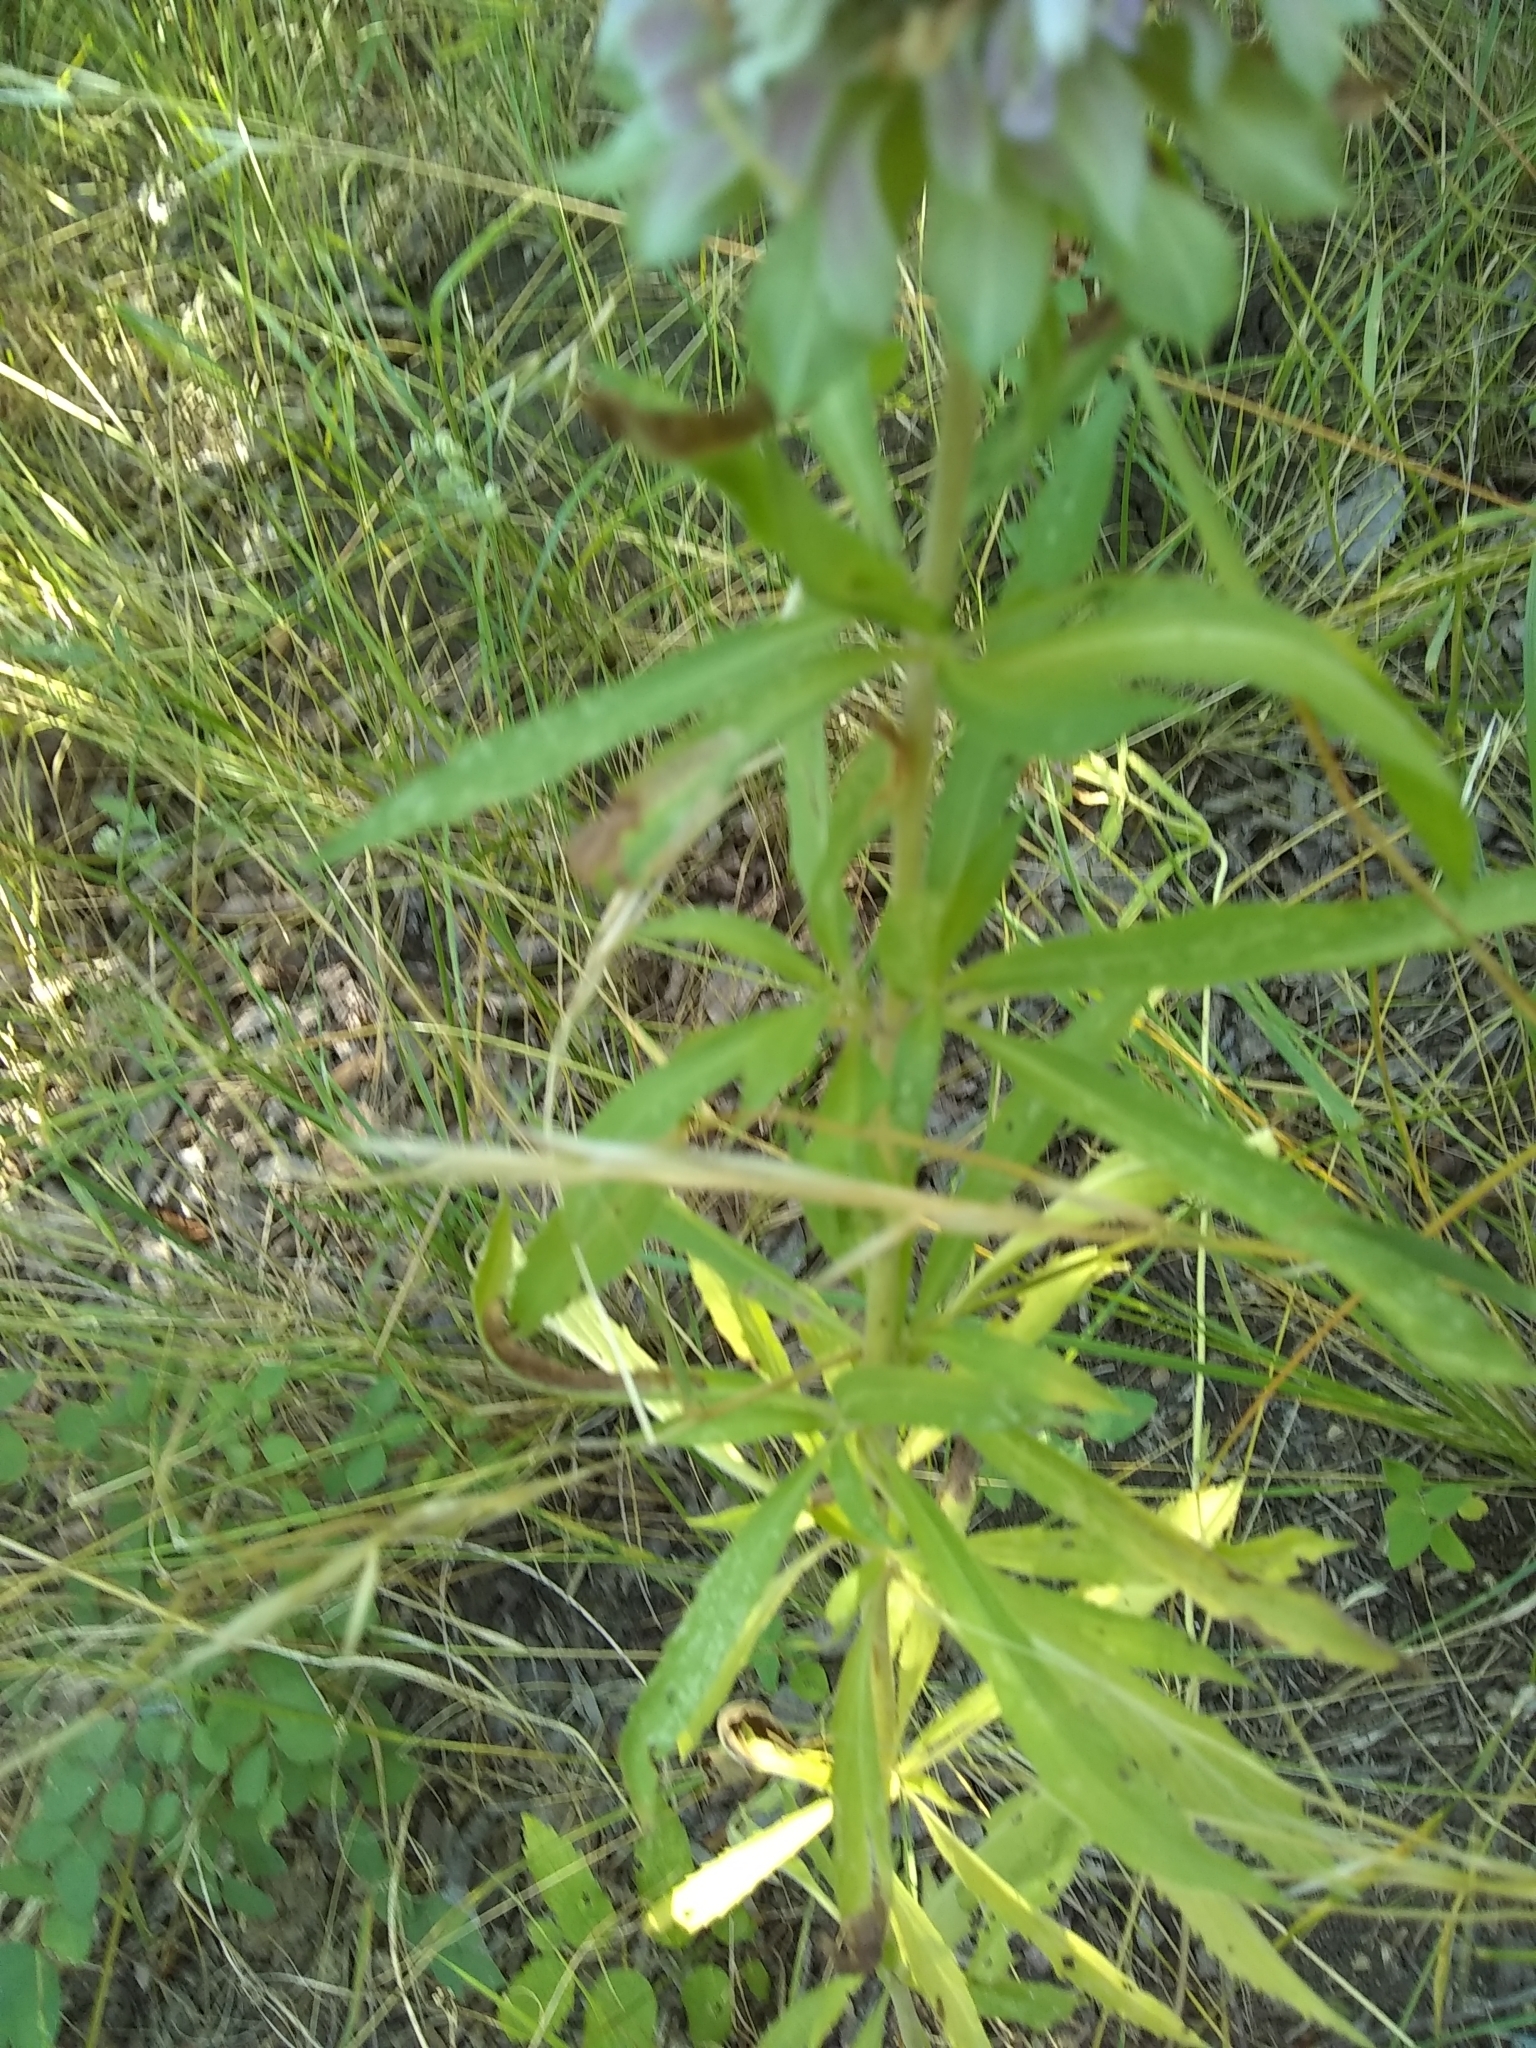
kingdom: Plantae
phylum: Tracheophyta
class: Magnoliopsida
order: Lamiales
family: Lamiaceae
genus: Monarda
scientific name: Monarda citriodora
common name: Lemon beebalm
